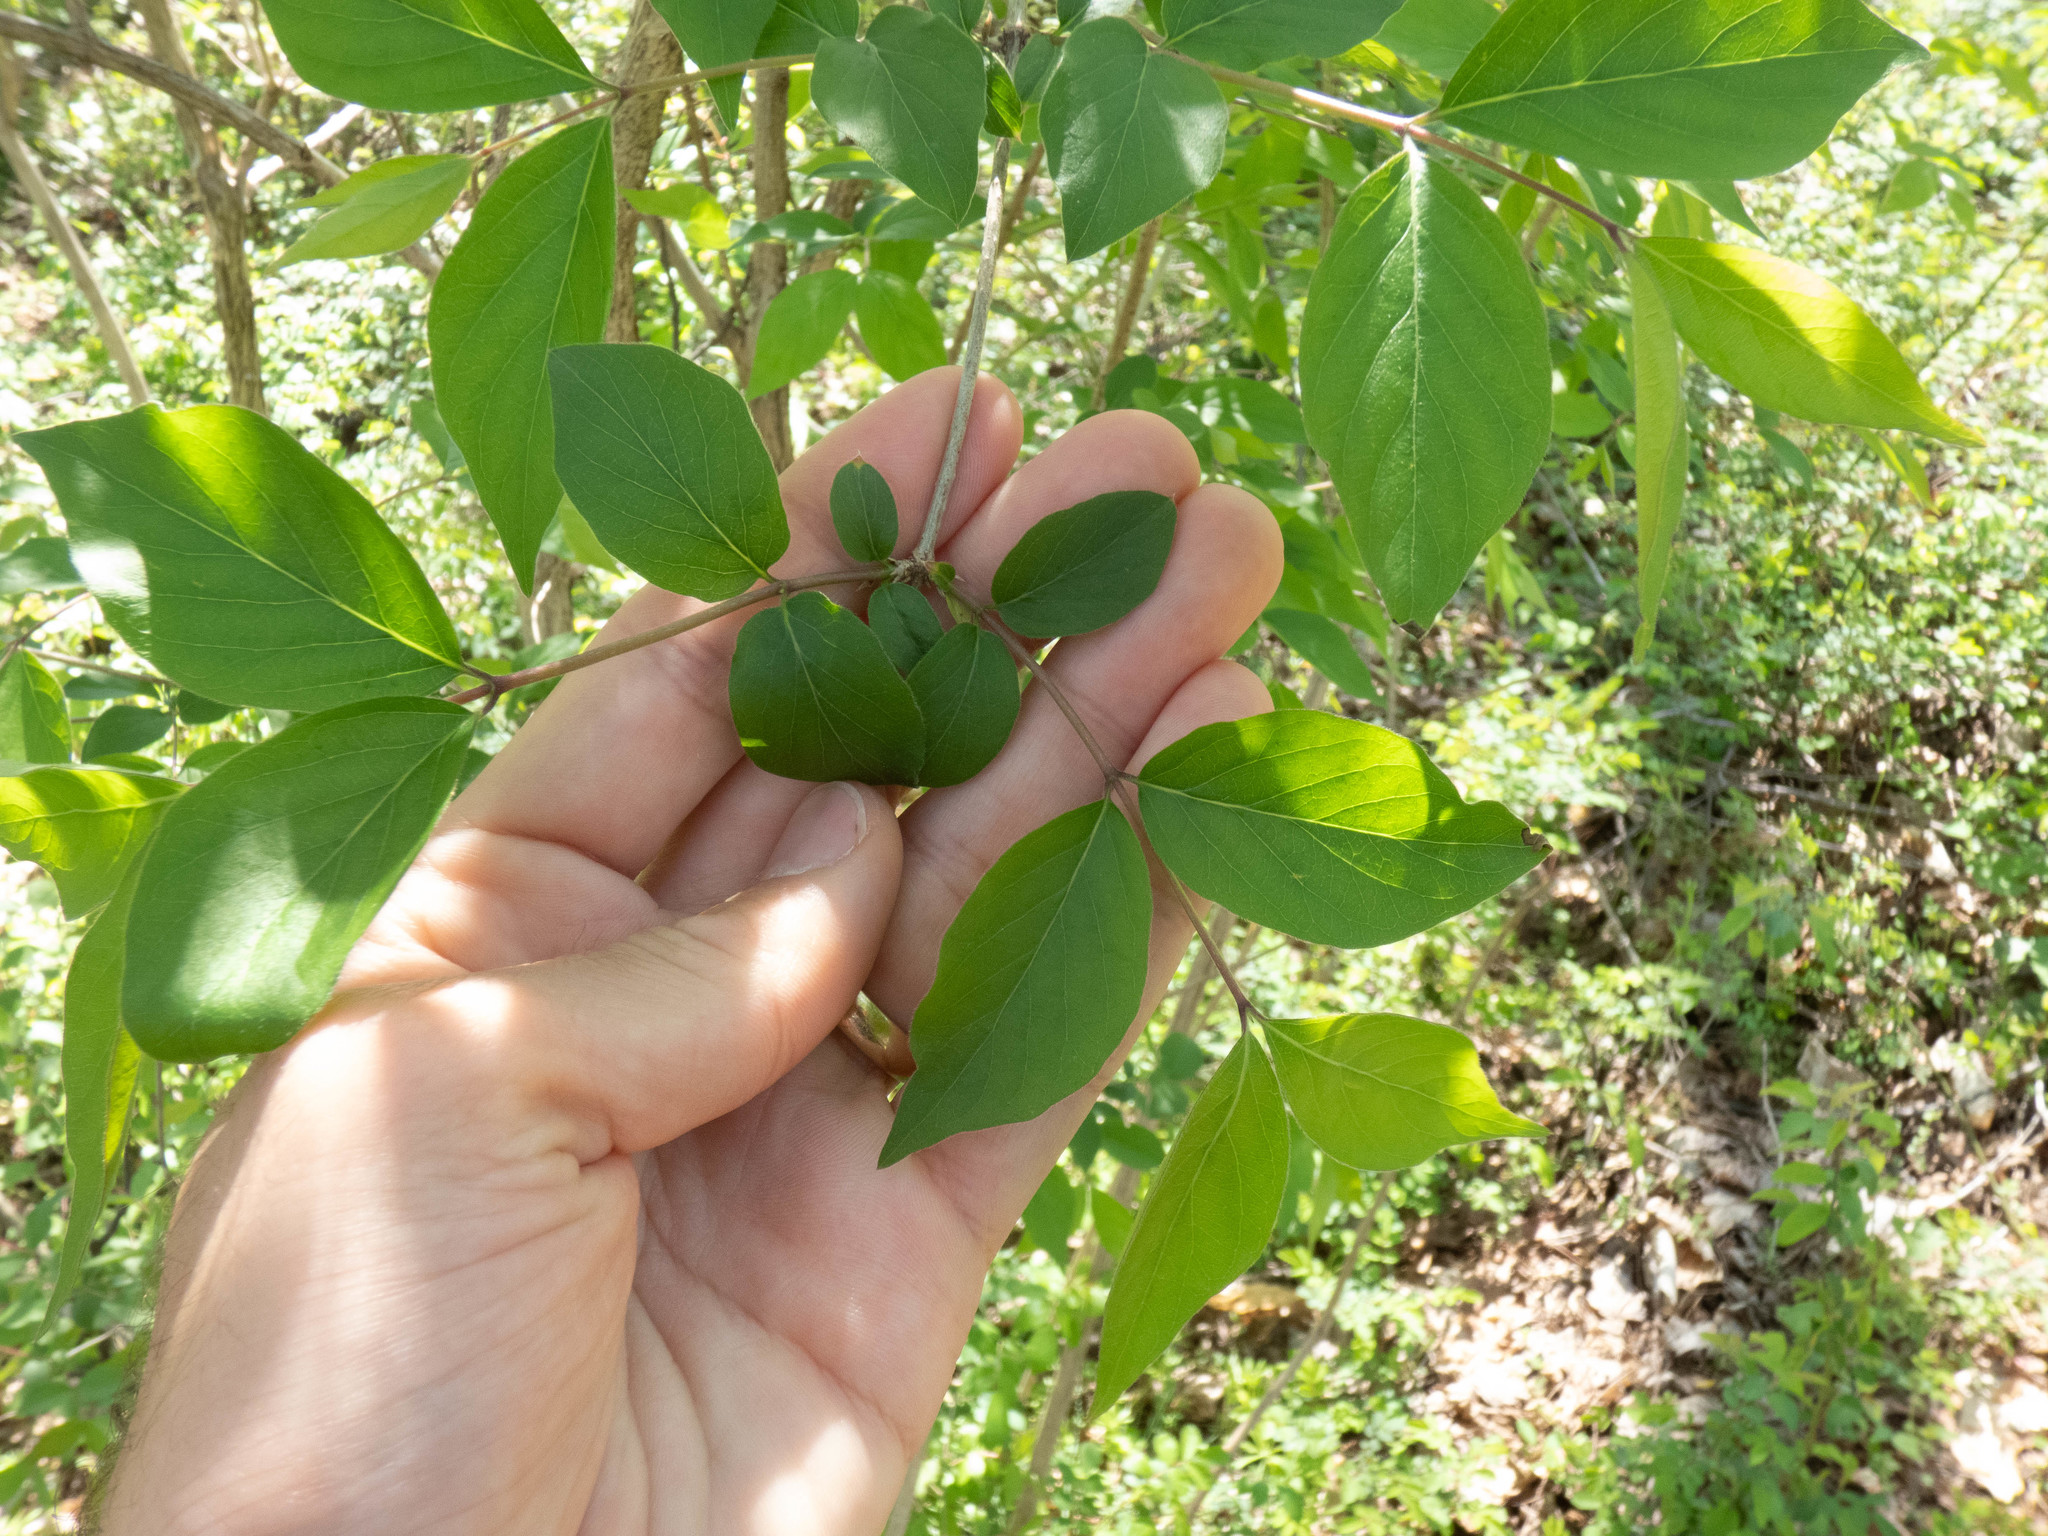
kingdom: Plantae
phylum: Tracheophyta
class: Magnoliopsida
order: Dipsacales
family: Caprifoliaceae
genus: Lonicera
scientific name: Lonicera maackii
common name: Amur honeysuckle
